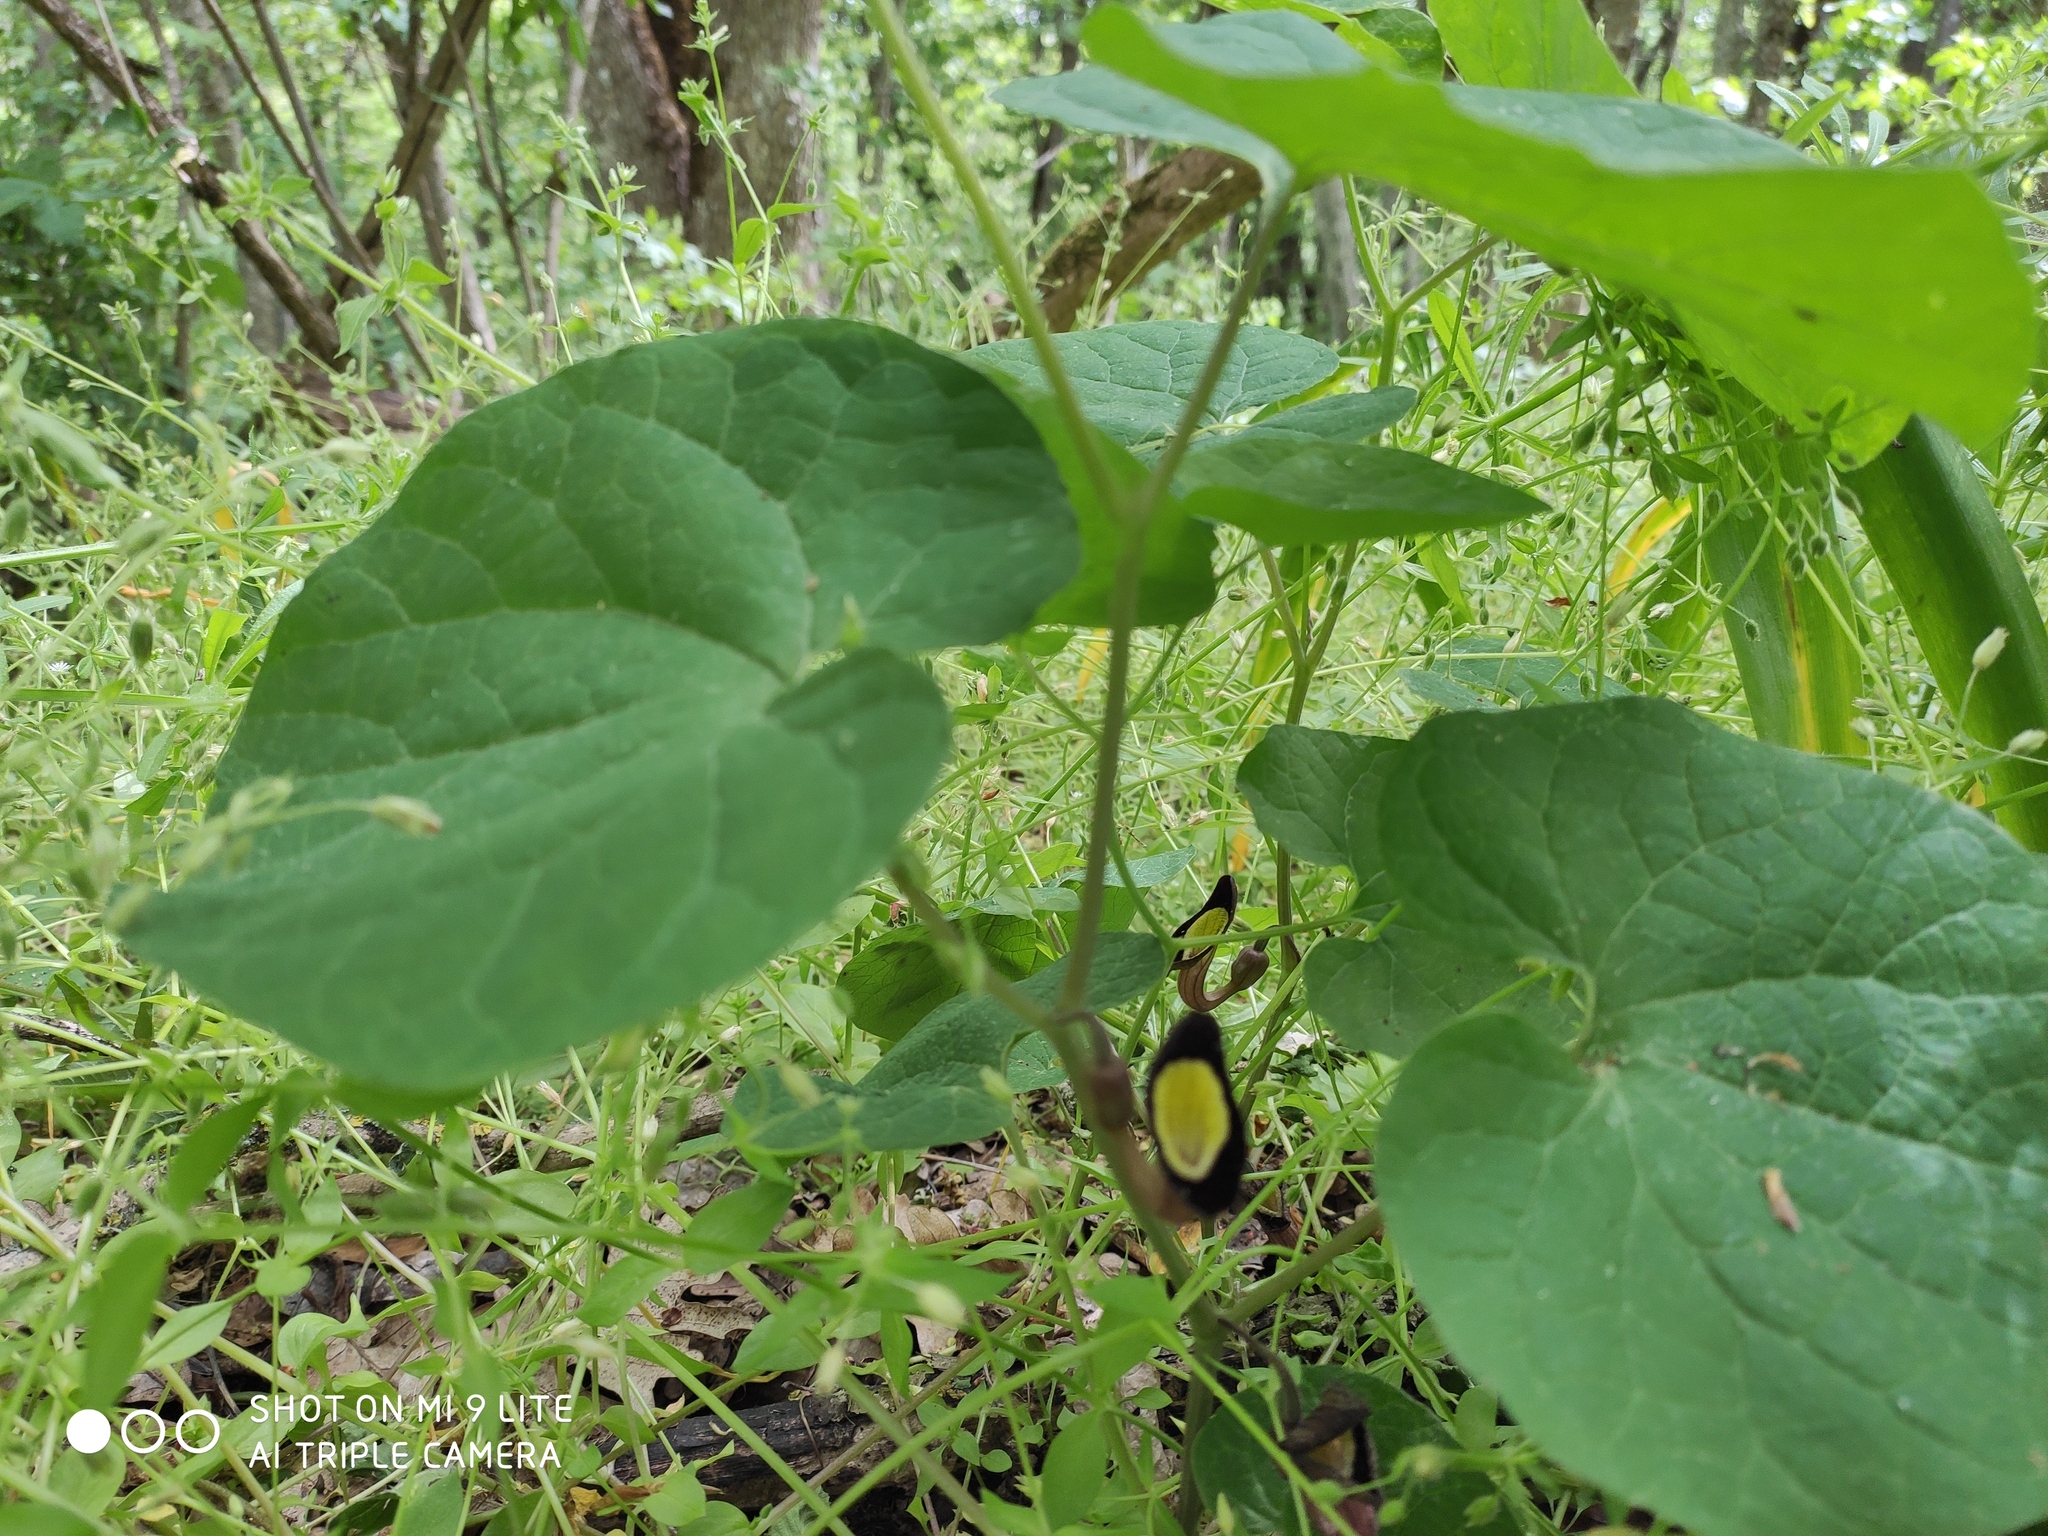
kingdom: Plantae
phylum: Tracheophyta
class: Magnoliopsida
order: Piperales
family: Aristolochiaceae
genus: Aristolochia
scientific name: Aristolochia steupii
